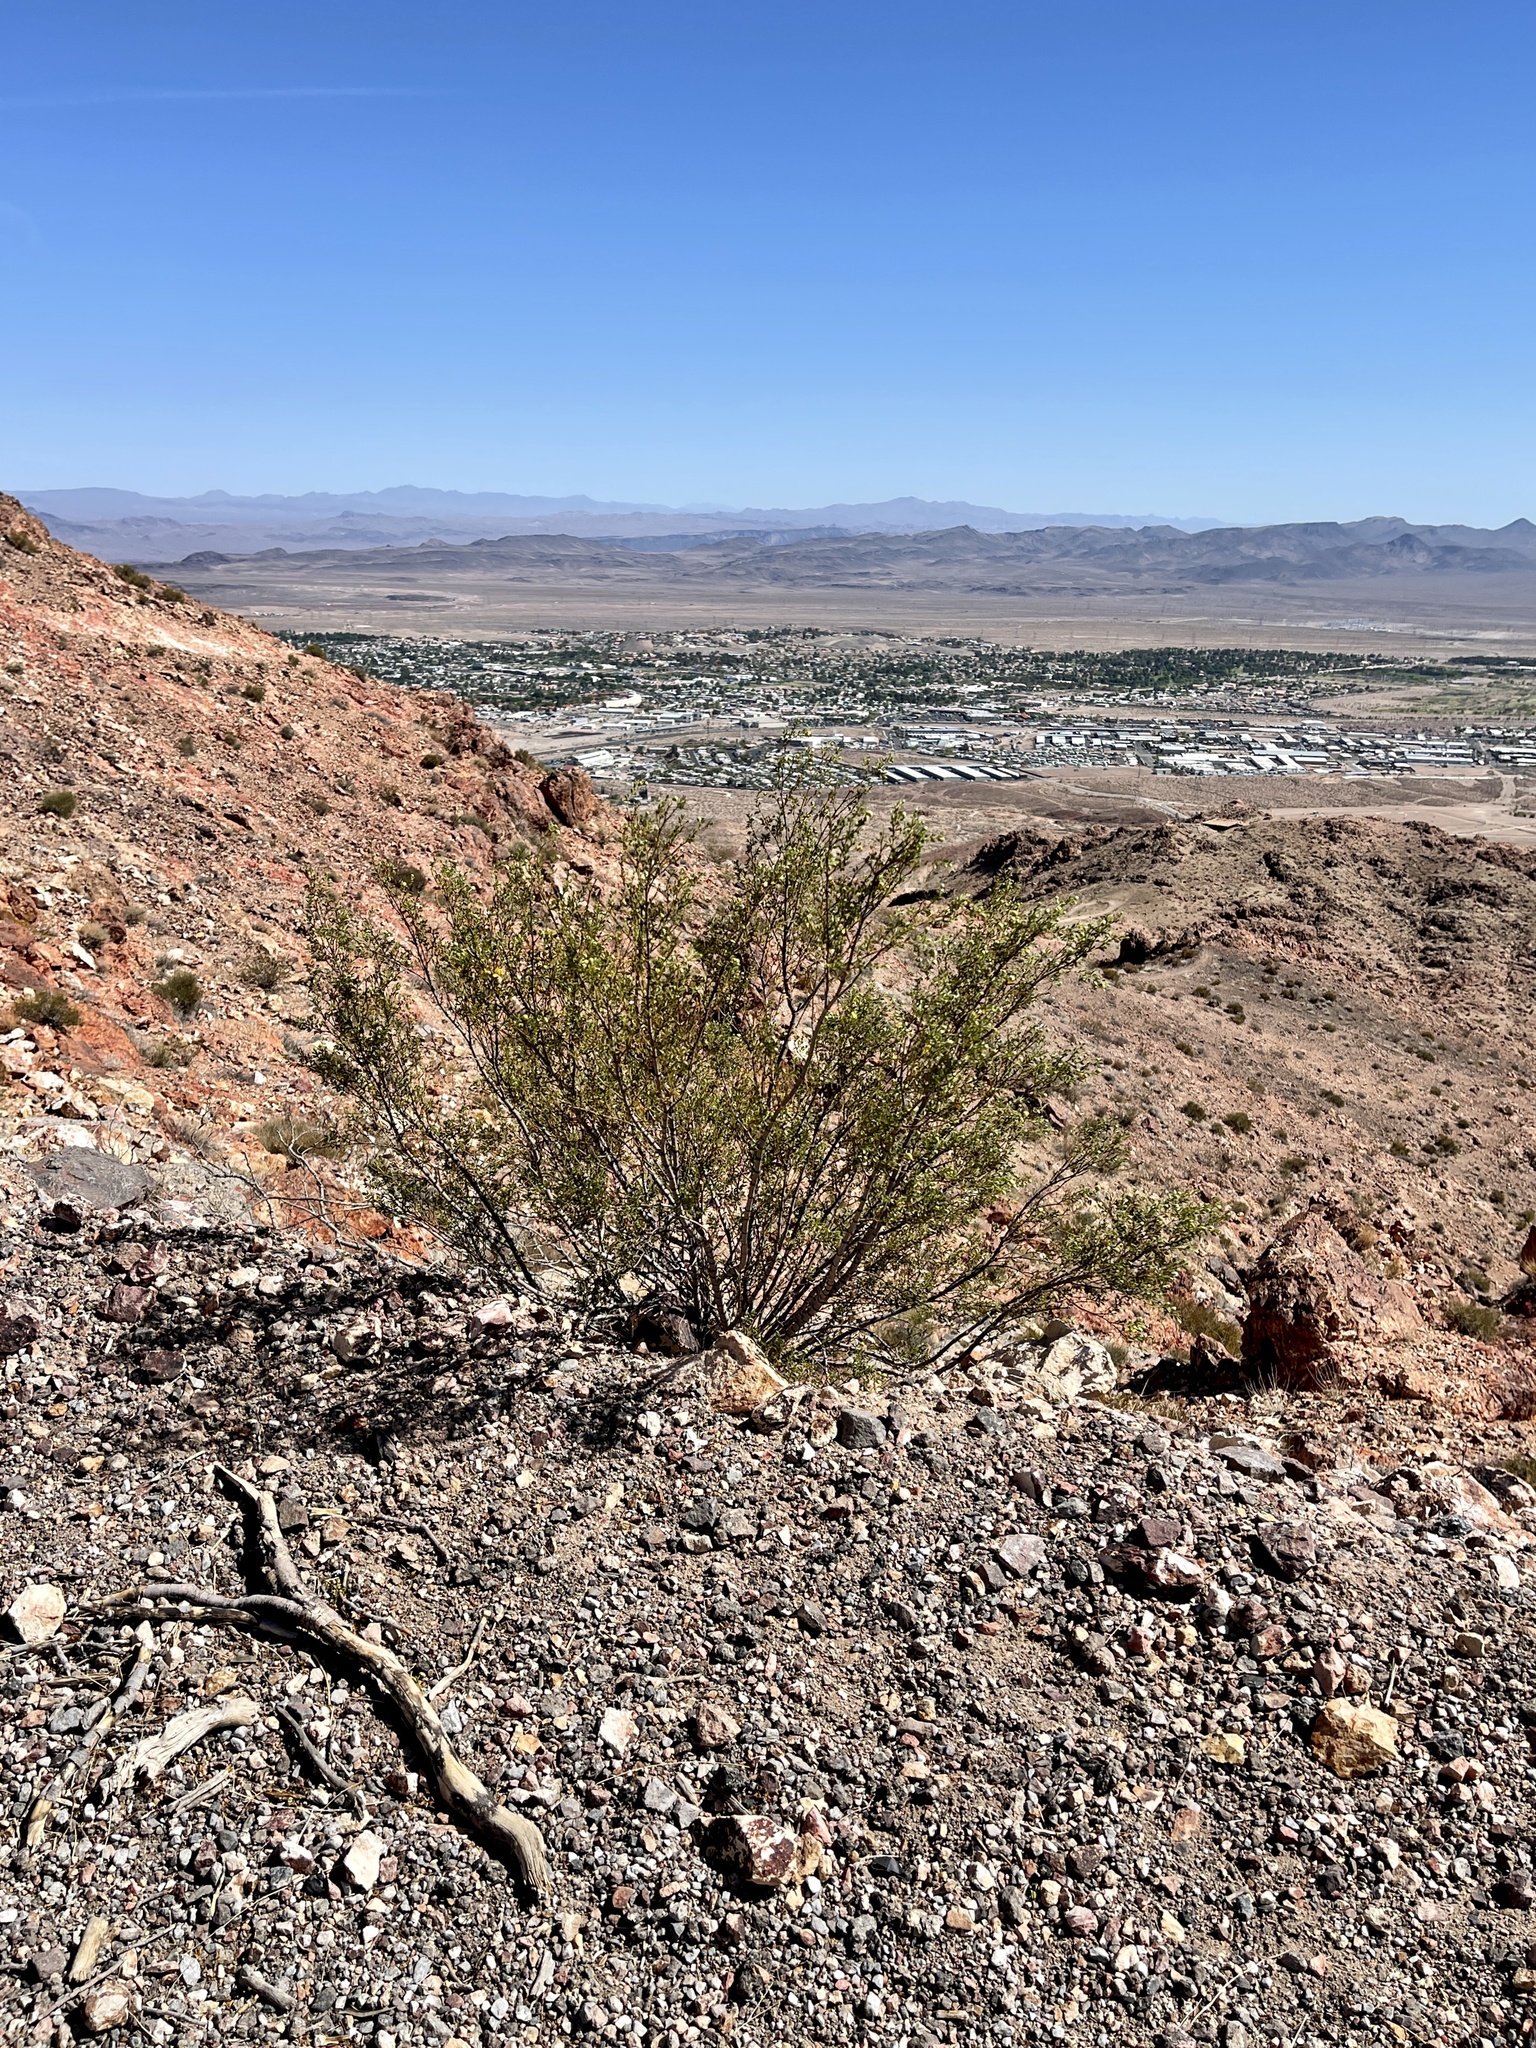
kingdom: Plantae
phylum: Tracheophyta
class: Magnoliopsida
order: Zygophyllales
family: Zygophyllaceae
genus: Larrea
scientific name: Larrea tridentata
